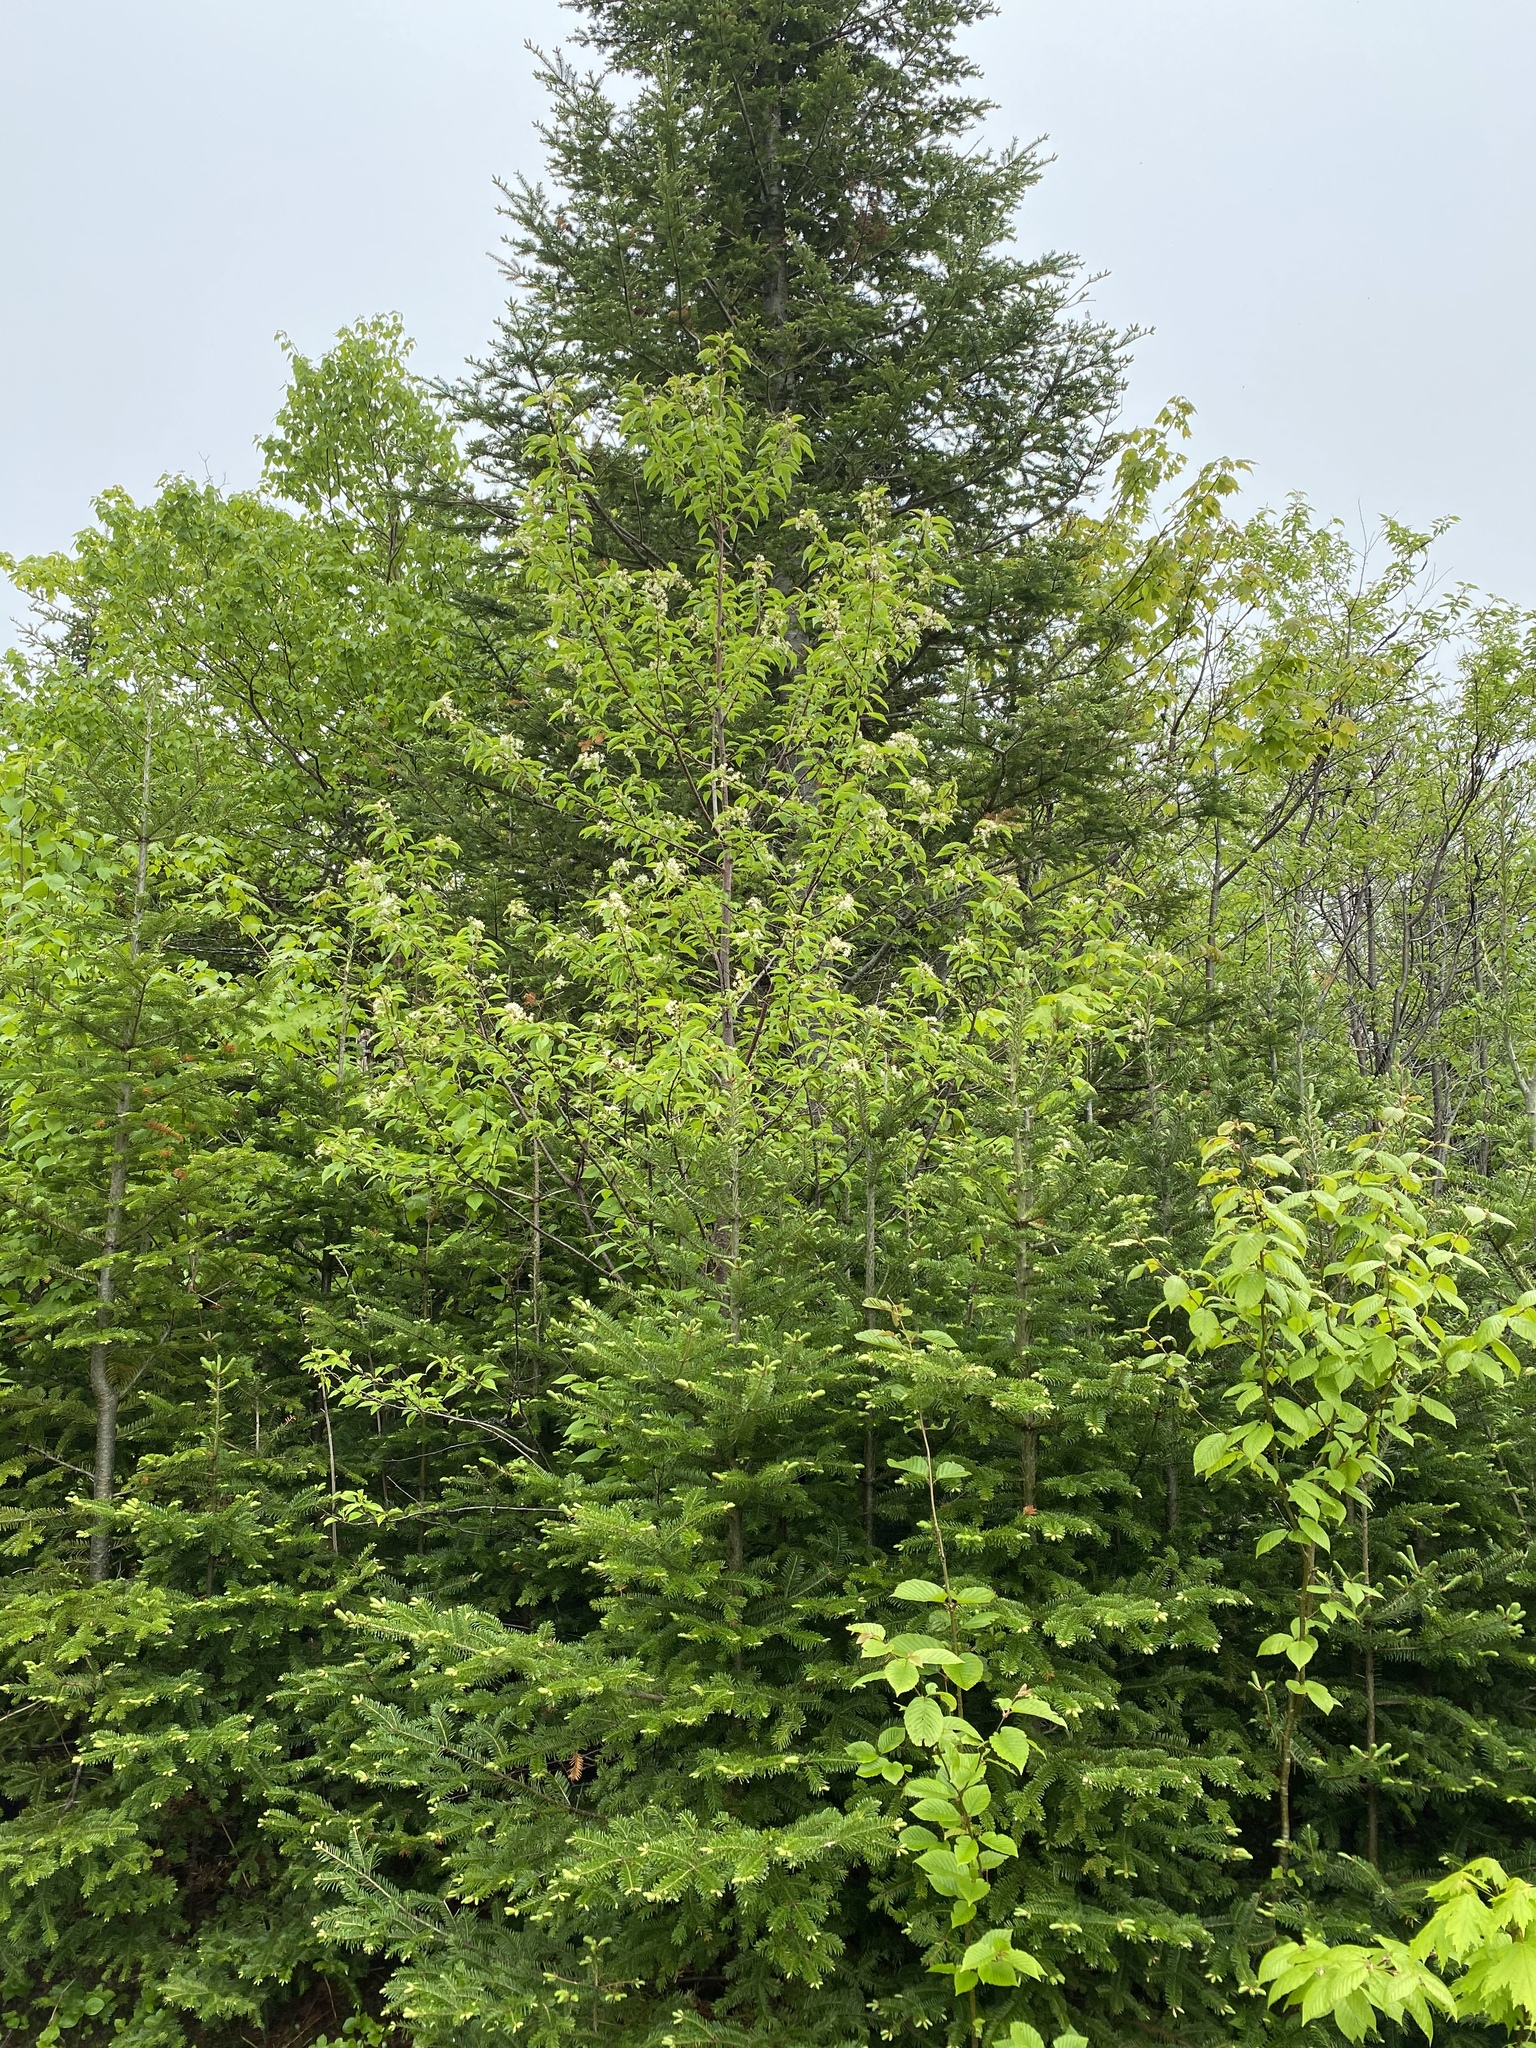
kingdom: Plantae
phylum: Tracheophyta
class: Magnoliopsida
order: Rosales
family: Rosaceae
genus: Prunus
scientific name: Prunus pensylvanica
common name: Pin cherry
